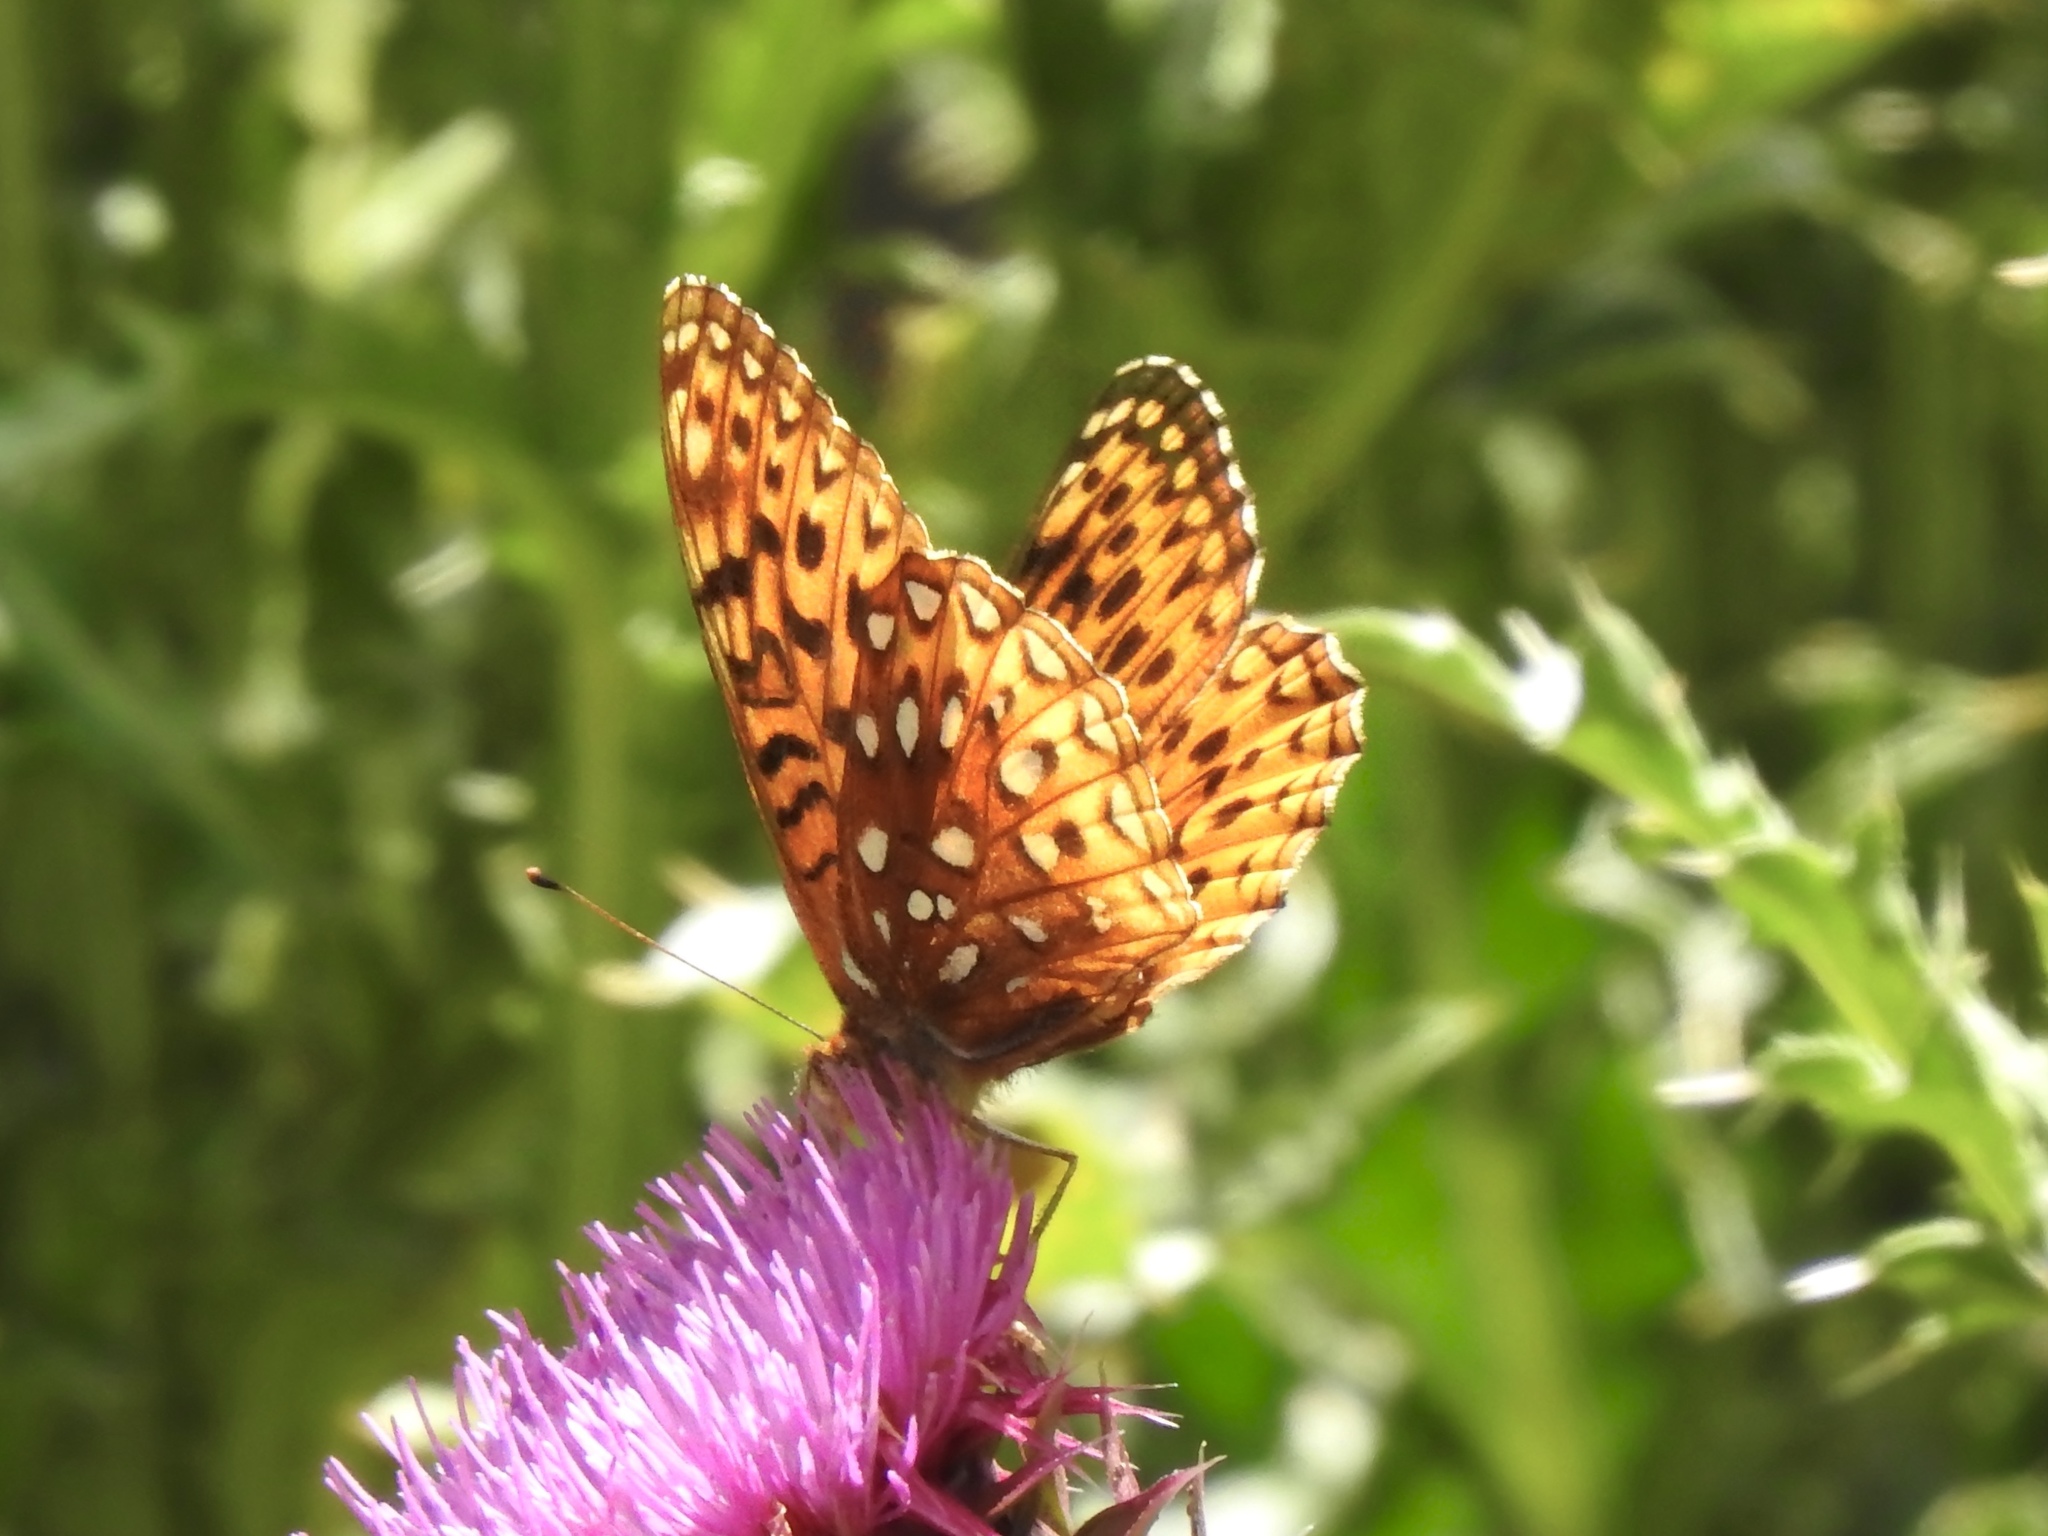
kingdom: Animalia
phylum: Arthropoda
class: Insecta
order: Lepidoptera
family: Nymphalidae
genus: Speyeria
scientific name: Speyeria atlantis
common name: Atlantis fritillary
